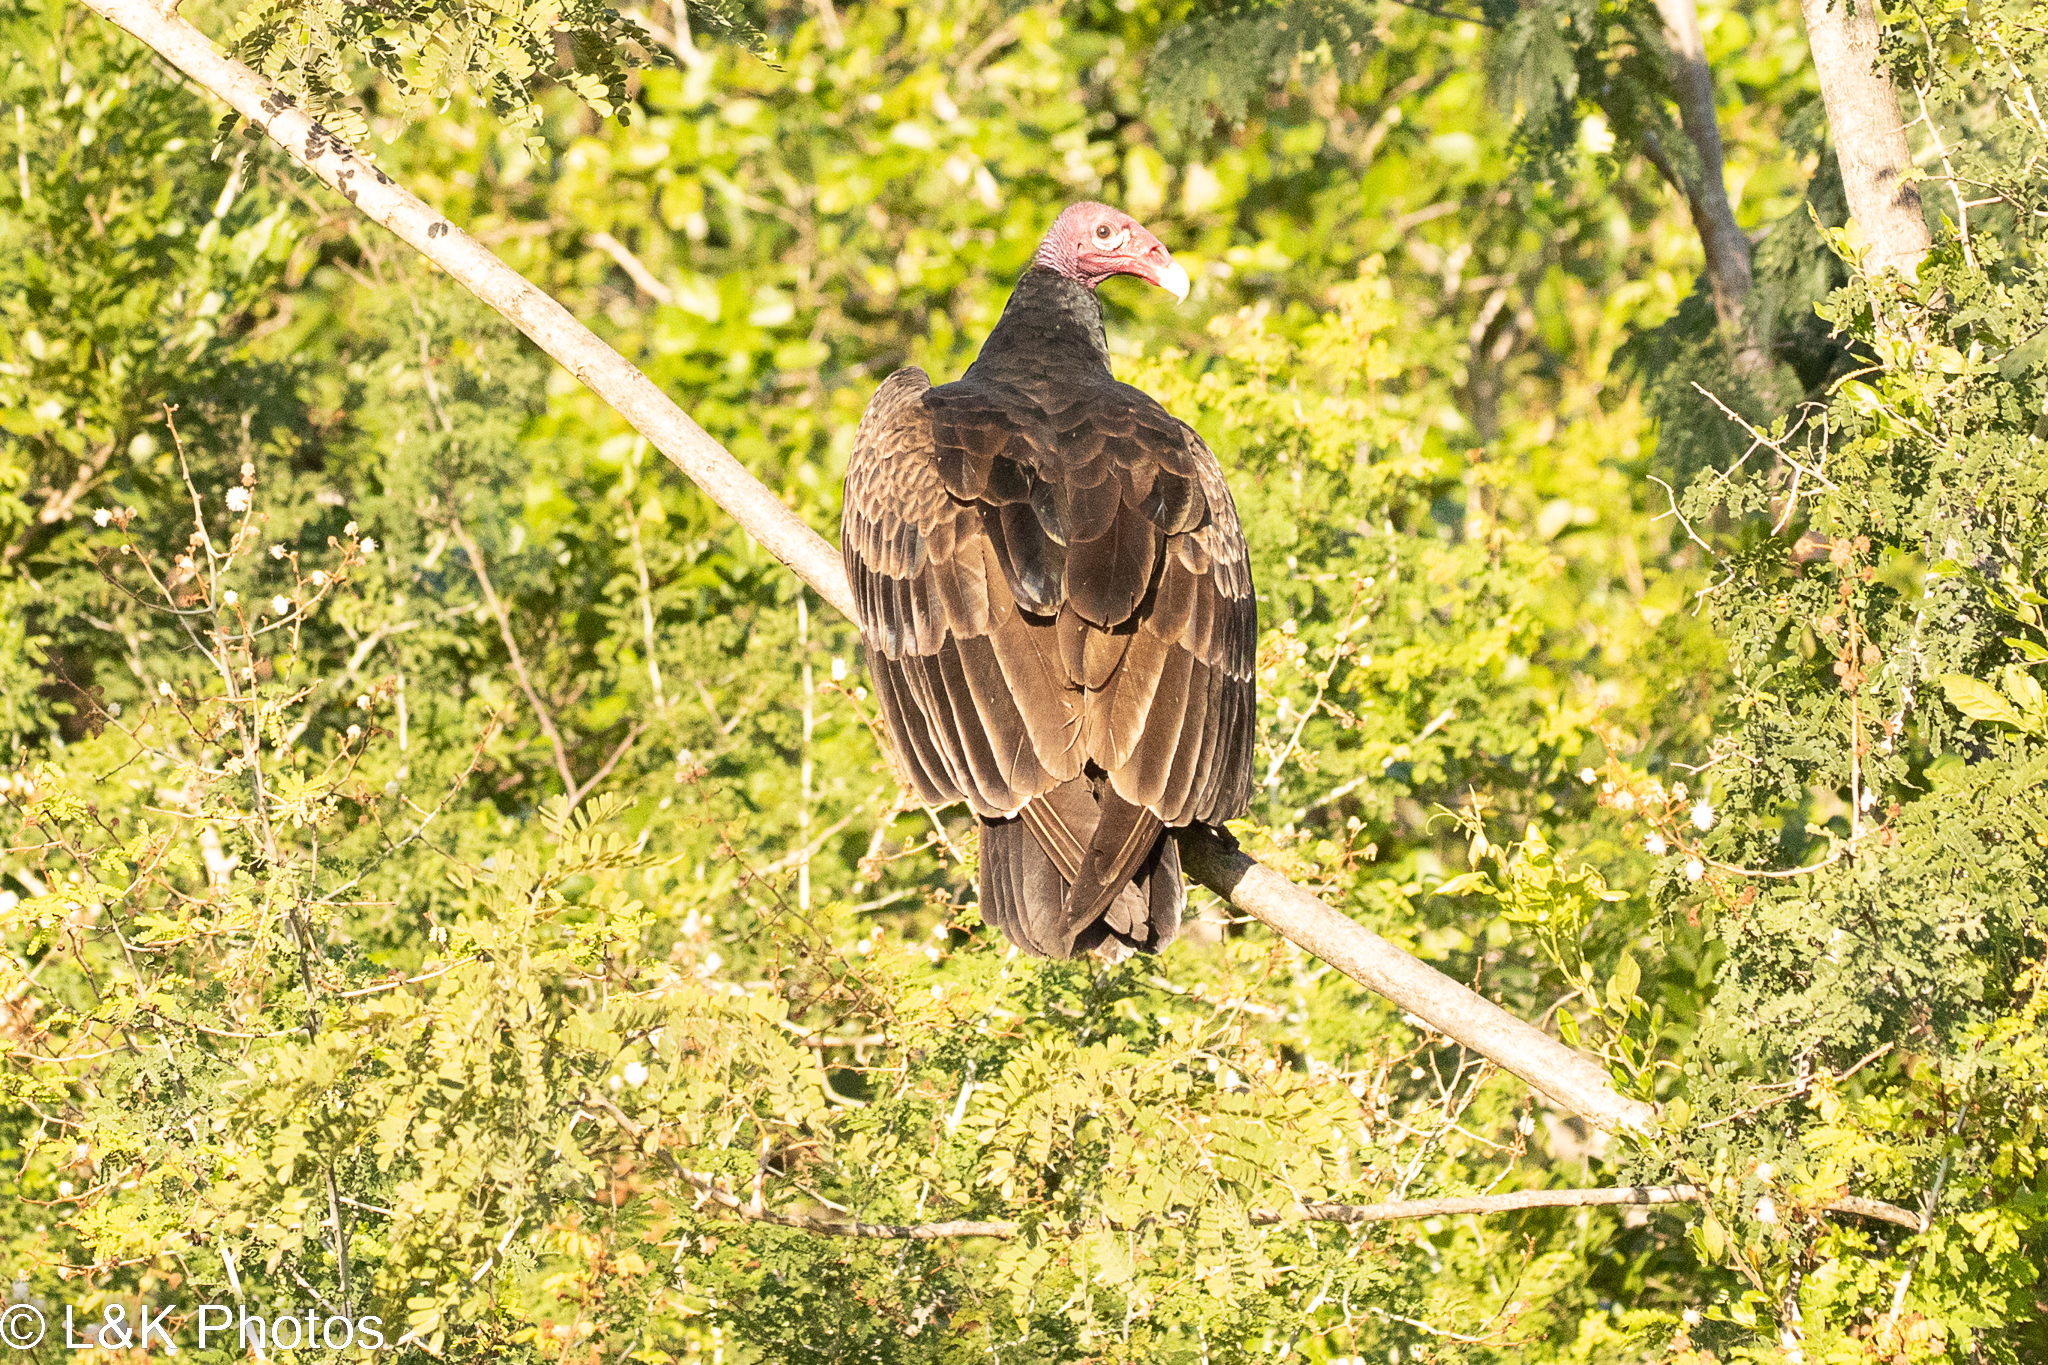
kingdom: Animalia
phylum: Chordata
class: Aves
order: Accipitriformes
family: Cathartidae
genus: Cathartes
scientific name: Cathartes aura
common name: Turkey vulture
